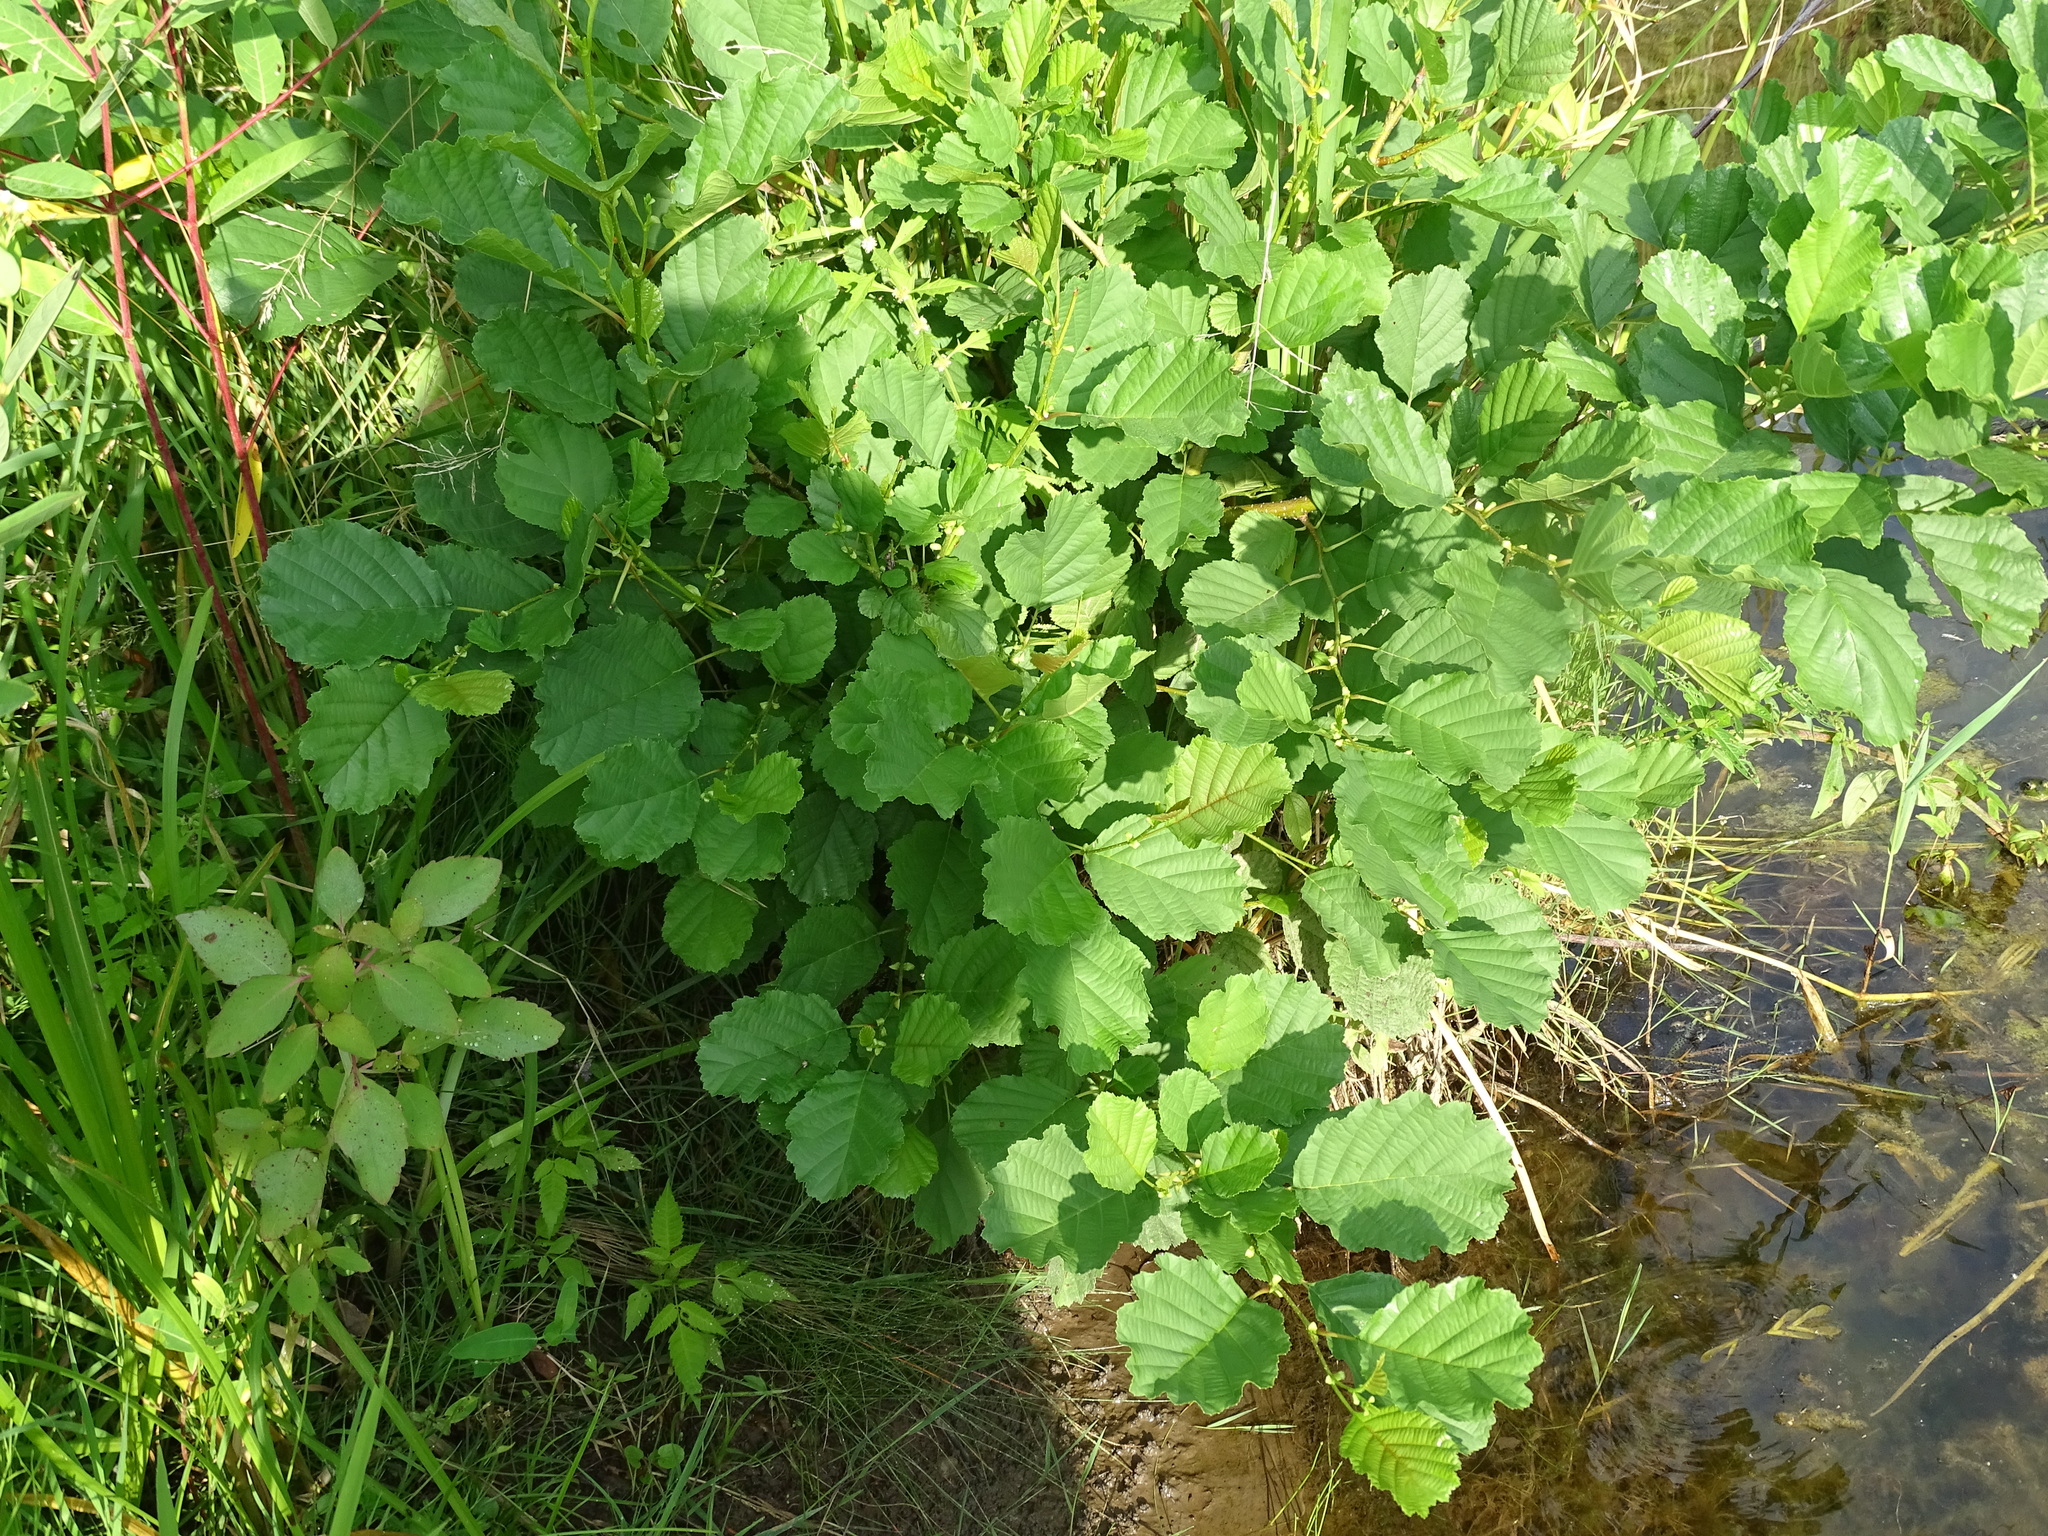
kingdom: Plantae
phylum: Tracheophyta
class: Magnoliopsida
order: Fagales
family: Betulaceae
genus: Alnus
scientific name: Alnus glutinosa
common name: Black alder
